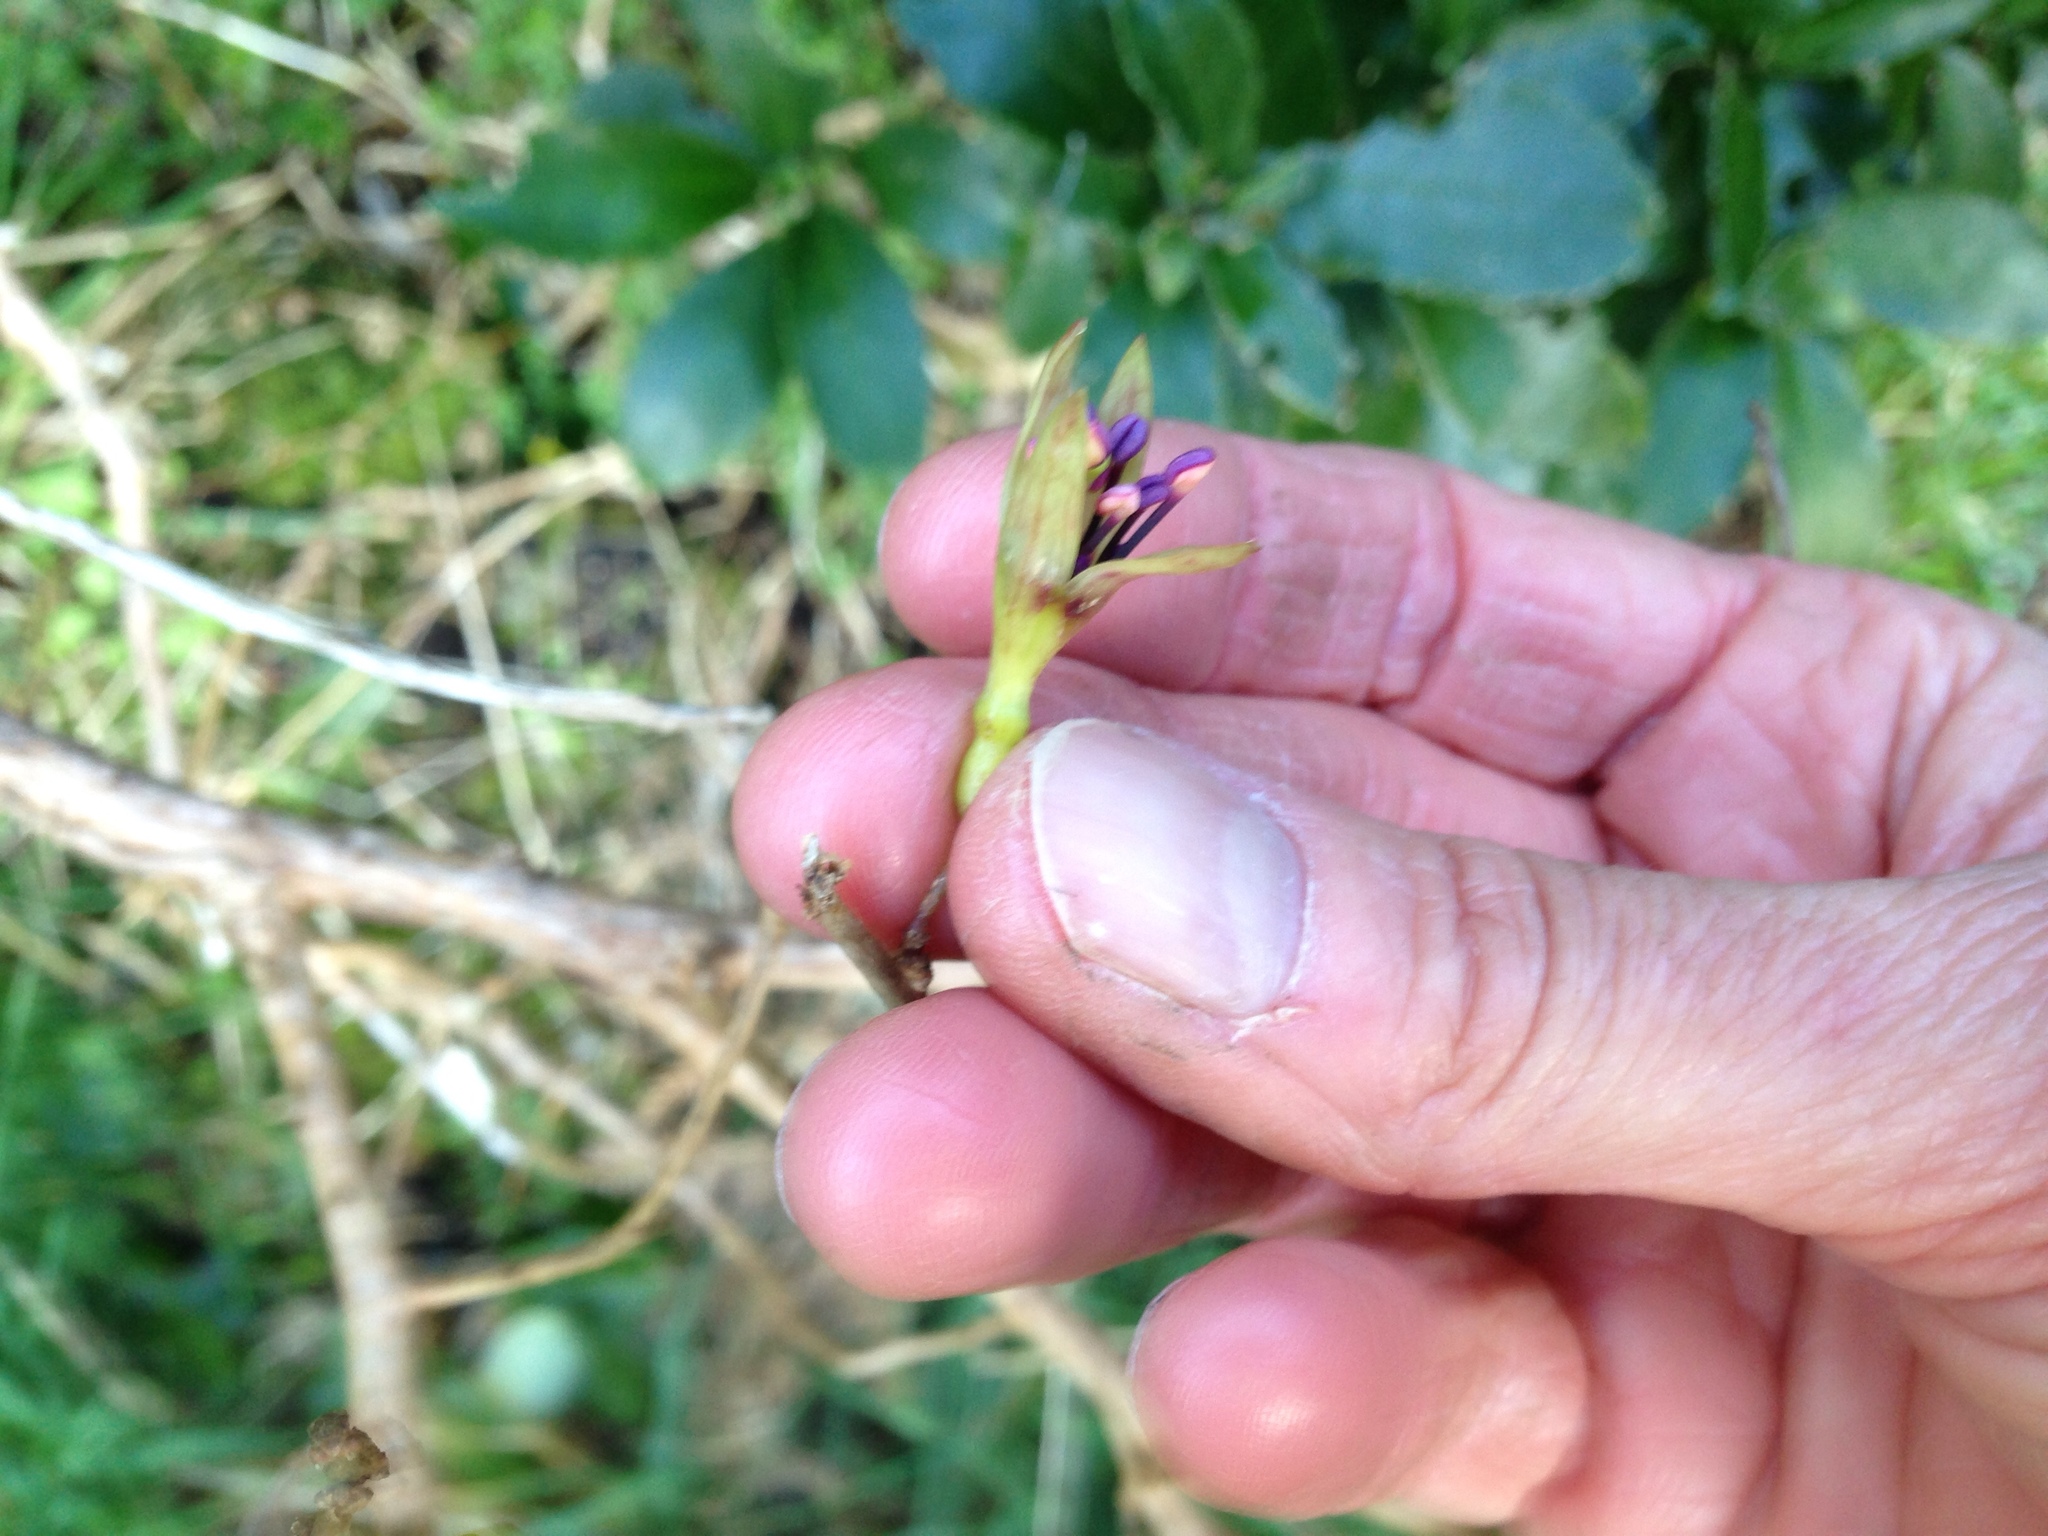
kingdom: Plantae
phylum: Tracheophyta
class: Magnoliopsida
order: Myrtales
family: Onagraceae
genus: Fuchsia
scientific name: Fuchsia perscandens
